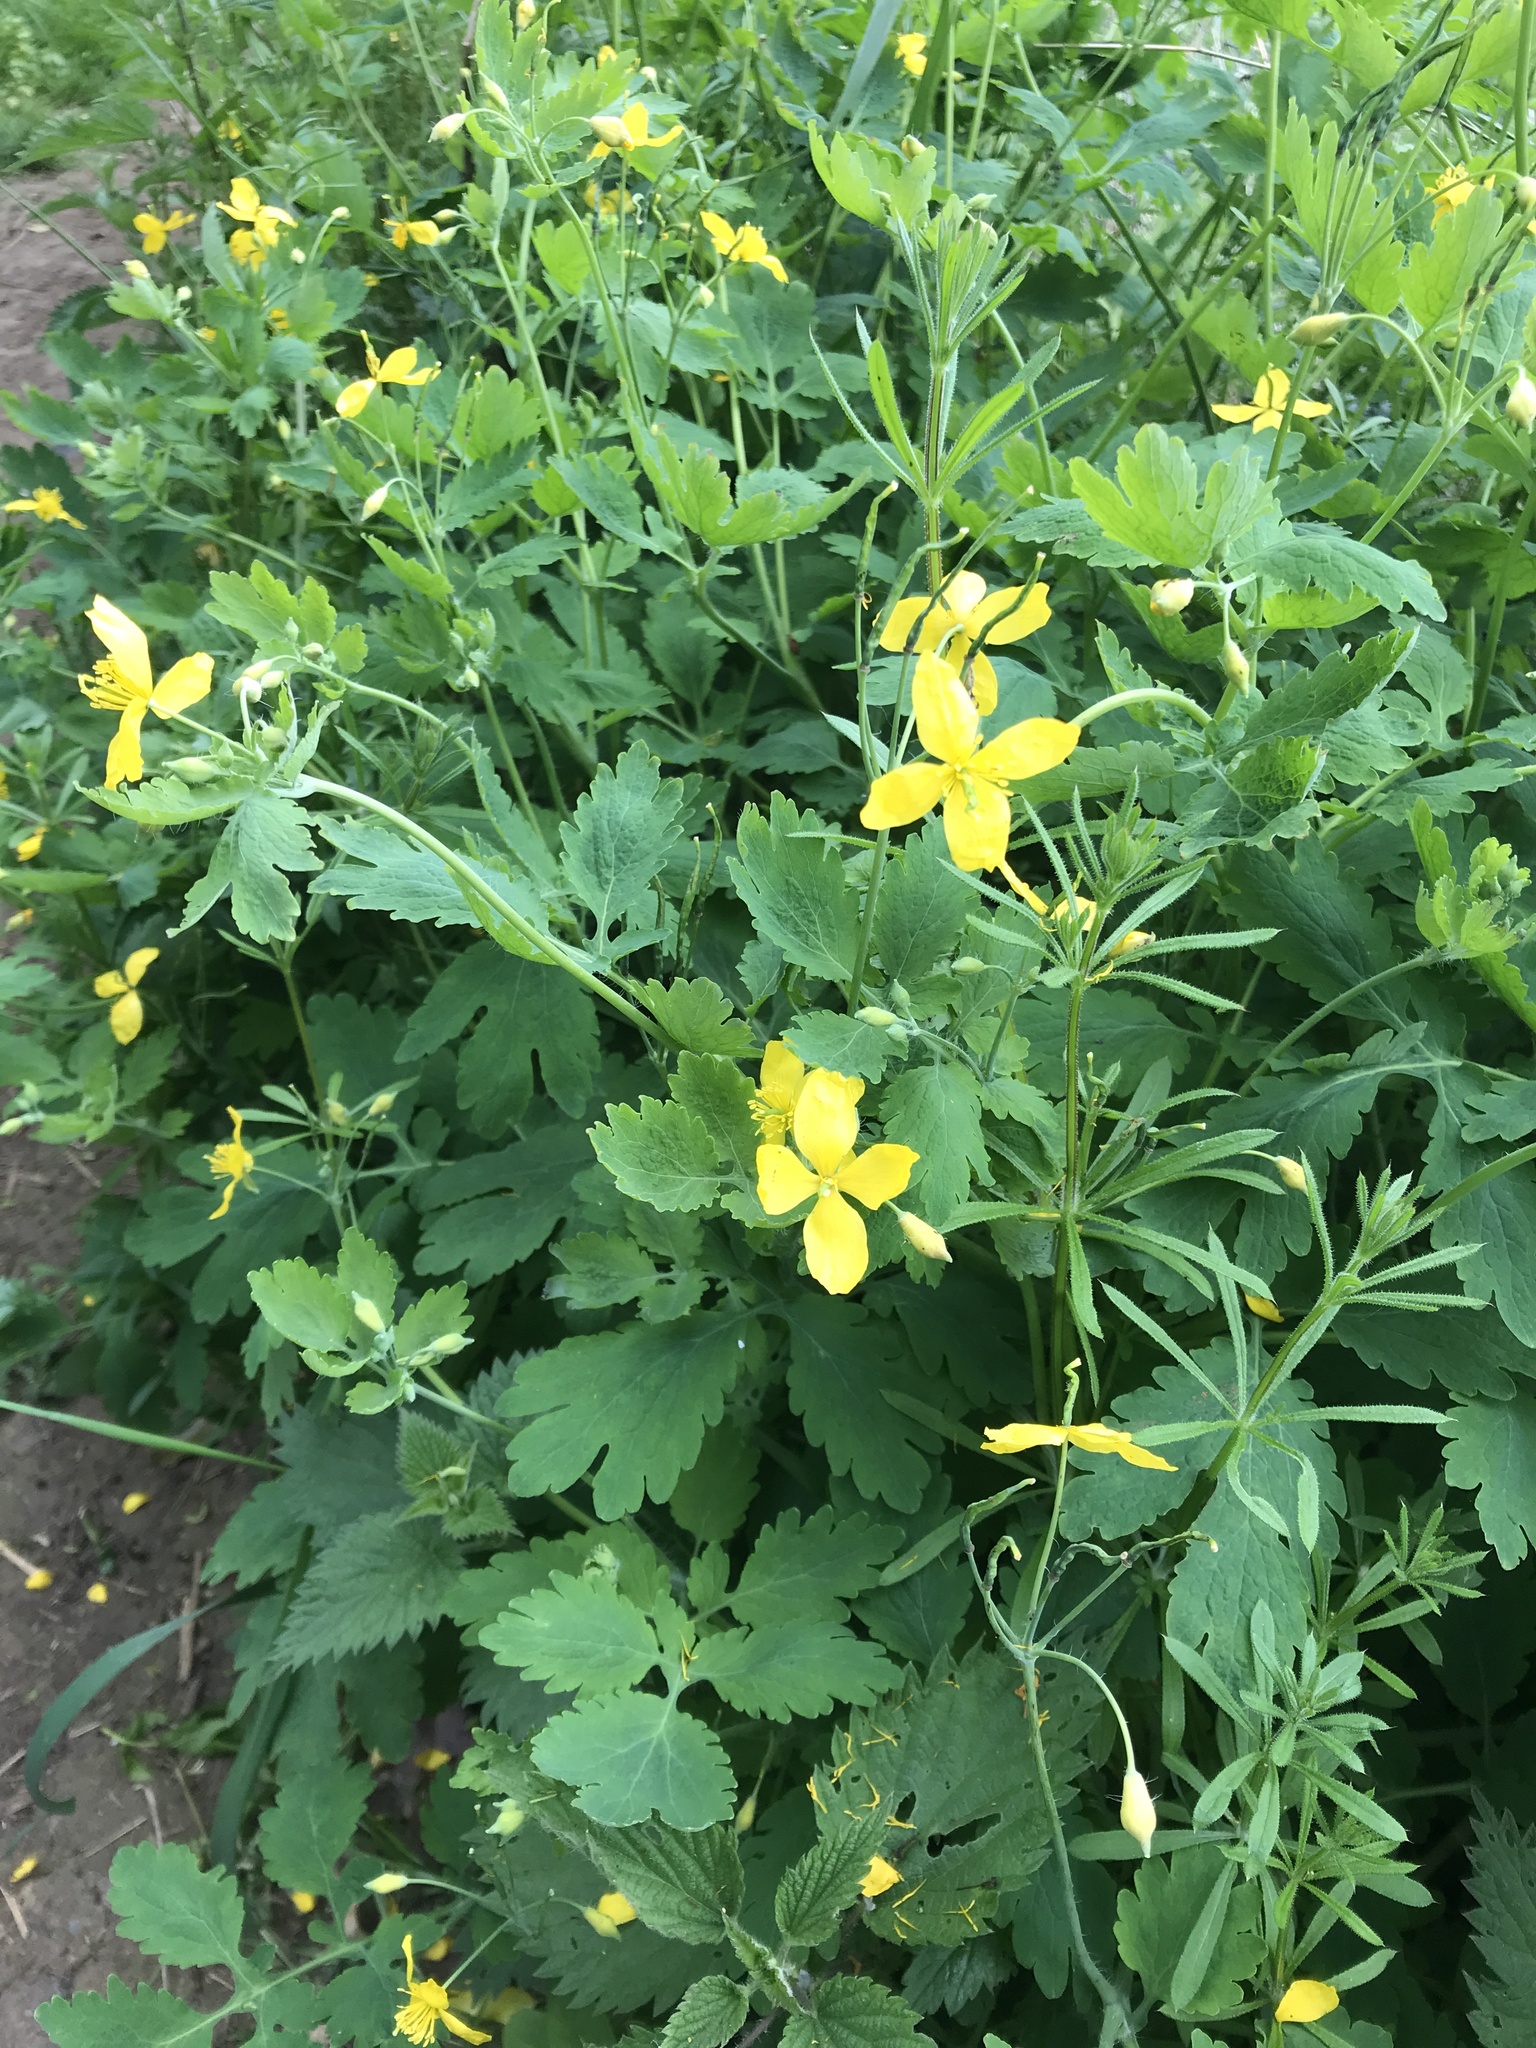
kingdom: Plantae
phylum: Tracheophyta
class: Magnoliopsida
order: Ranunculales
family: Papaveraceae
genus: Chelidonium
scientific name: Chelidonium majus
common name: Greater celandine
